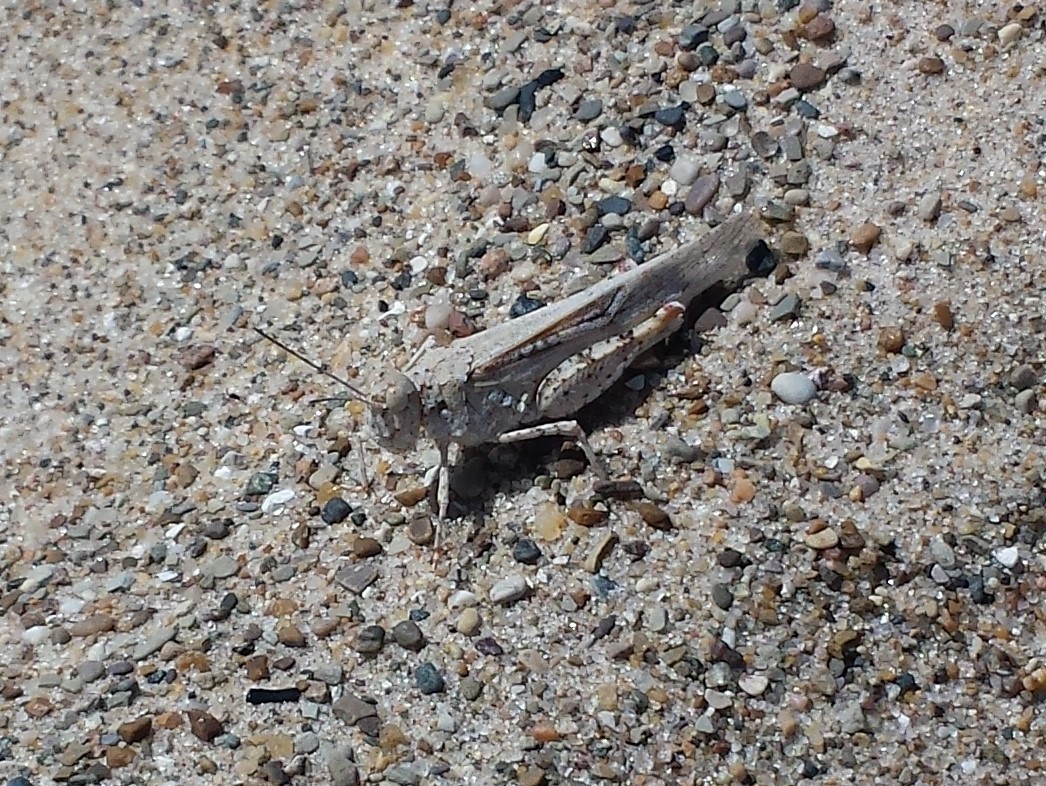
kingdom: Animalia
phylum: Arthropoda
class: Insecta
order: Orthoptera
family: Acrididae
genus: Trimerotropis
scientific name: Trimerotropis maritima
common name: Seaside locust
